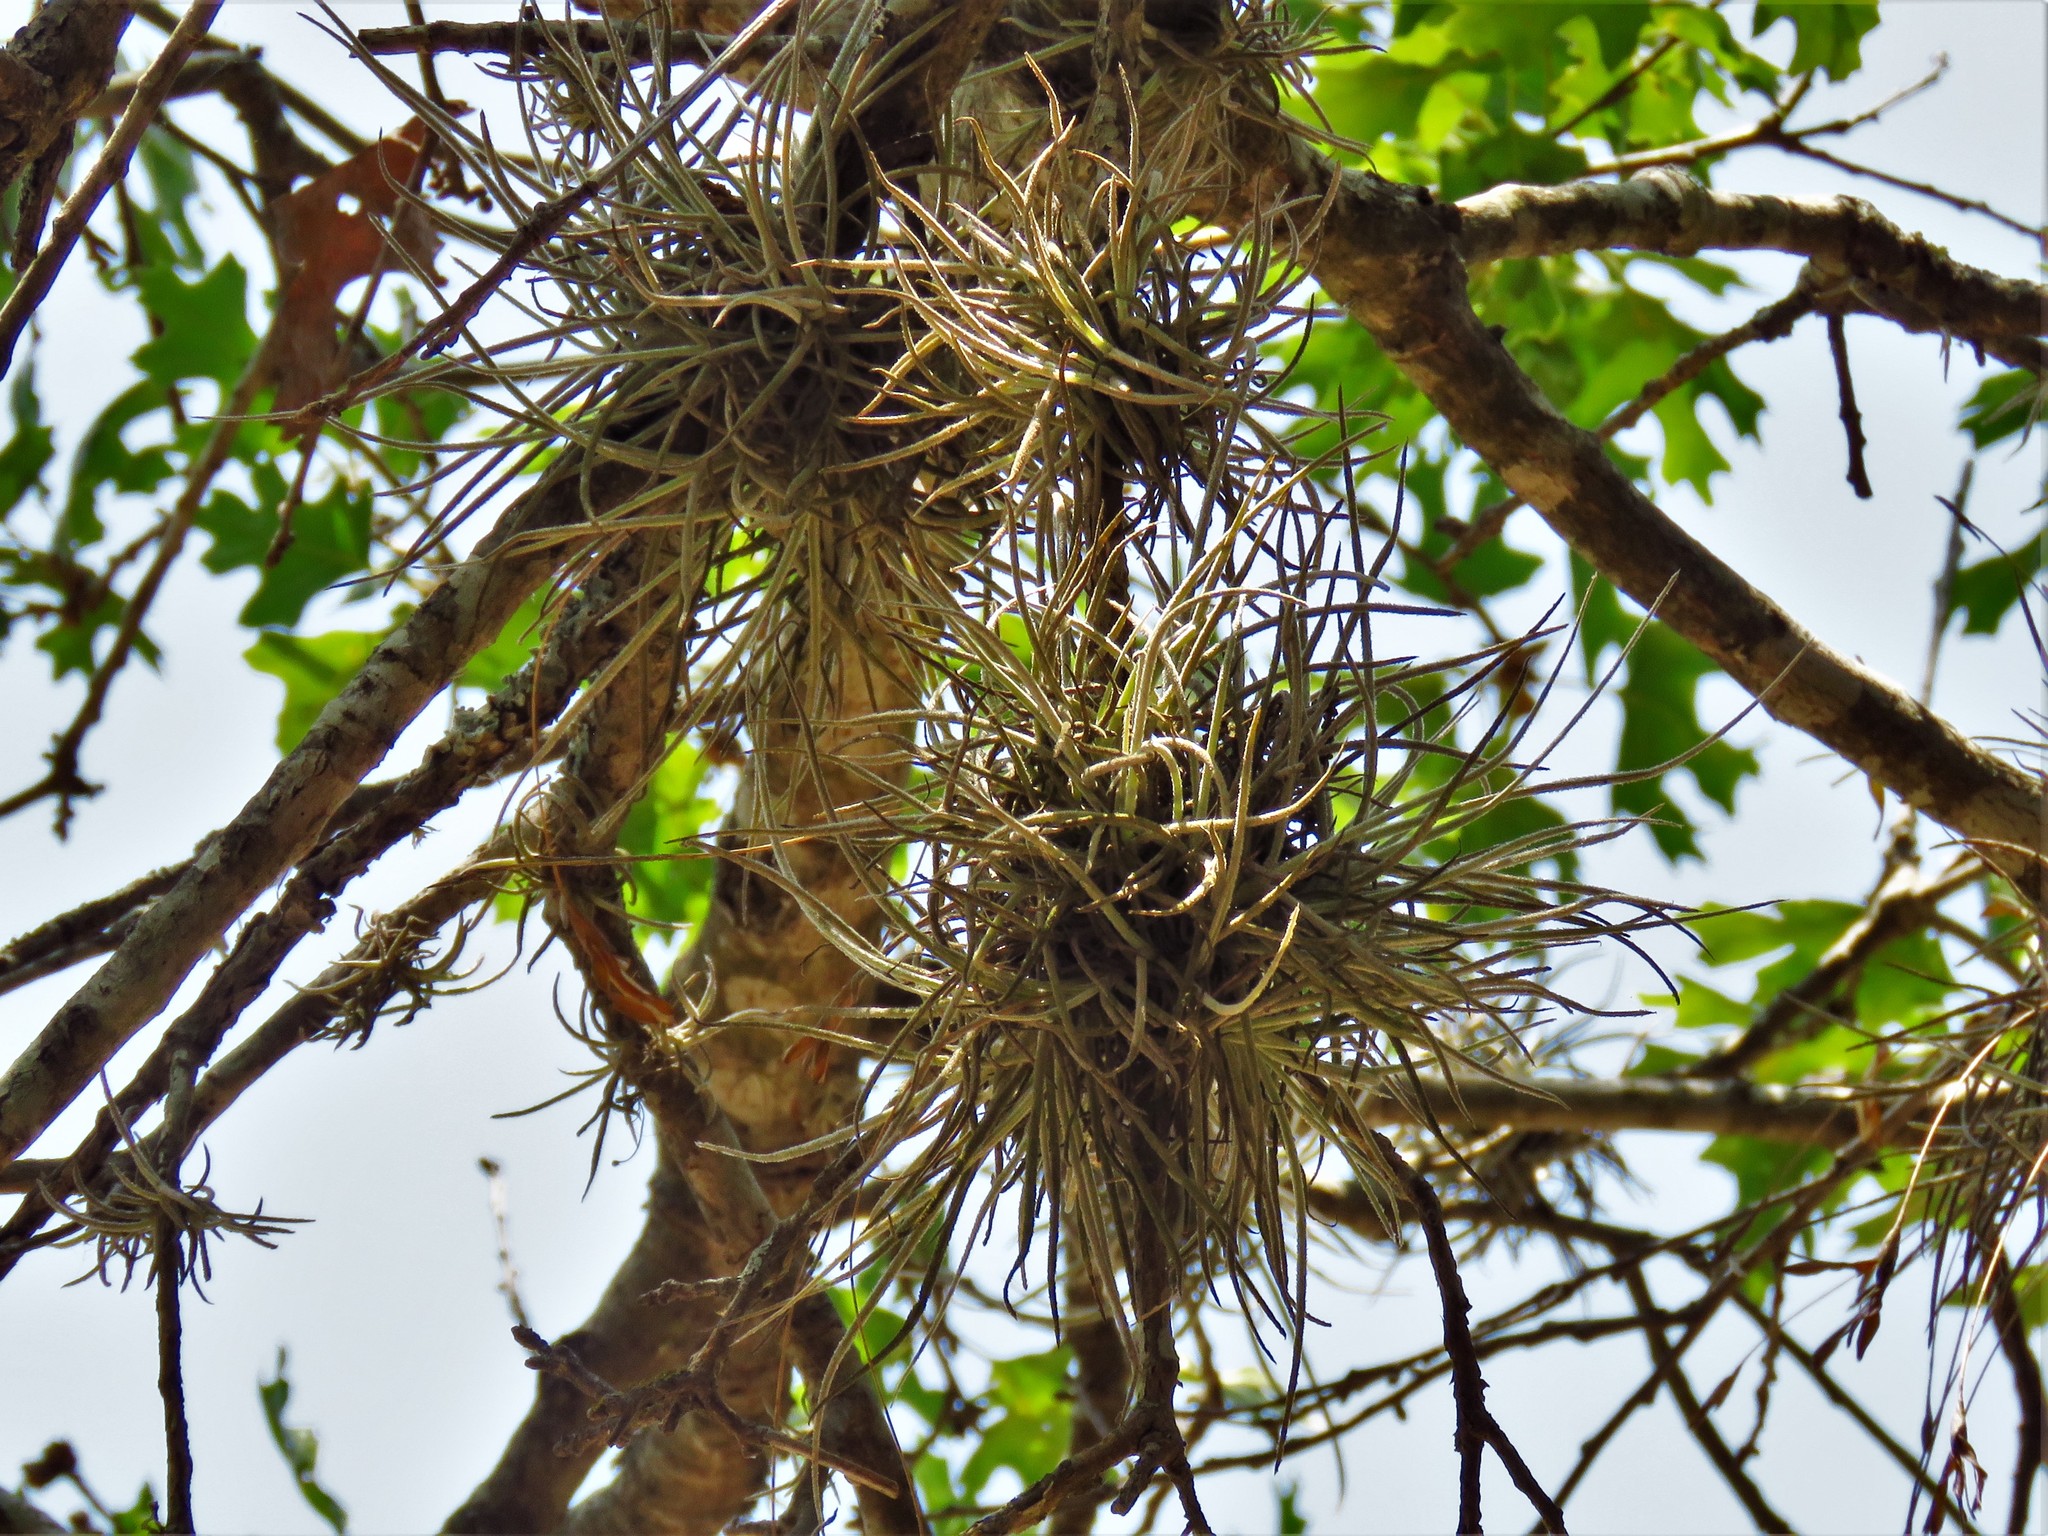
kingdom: Plantae
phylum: Tracheophyta
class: Liliopsida
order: Poales
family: Bromeliaceae
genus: Tillandsia
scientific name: Tillandsia recurvata
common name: Small ballmoss
